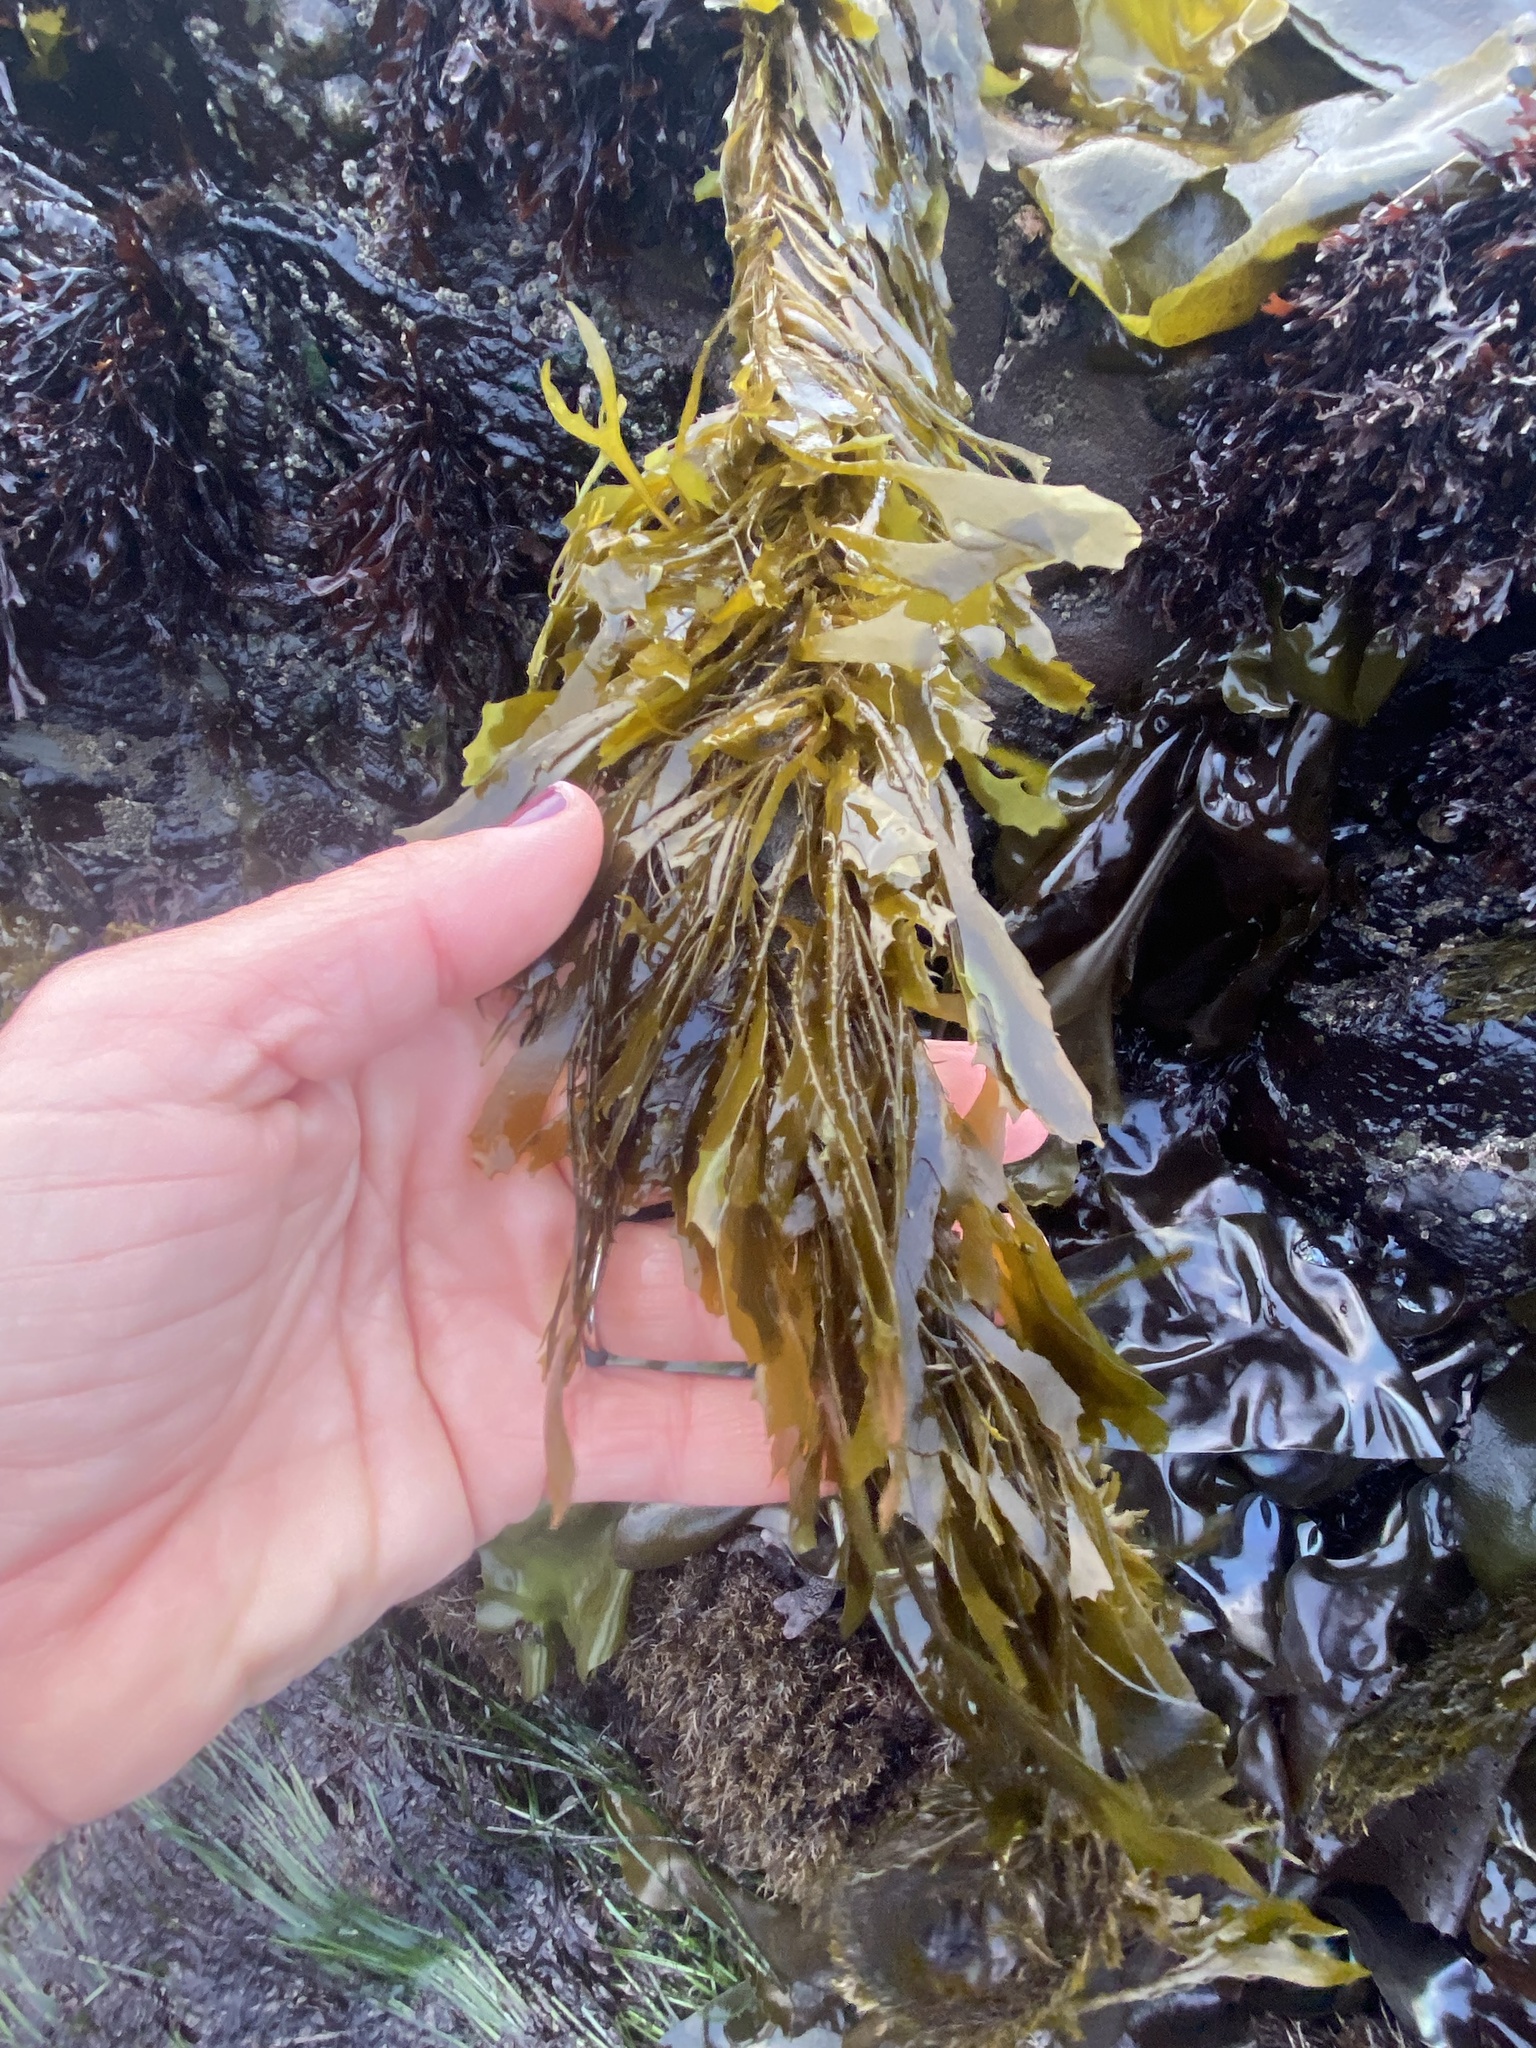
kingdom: Chromista
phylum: Ochrophyta
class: Phaeophyceae
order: Laminariales
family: Lessoniaceae
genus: Egregia
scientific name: Egregia menziesii
